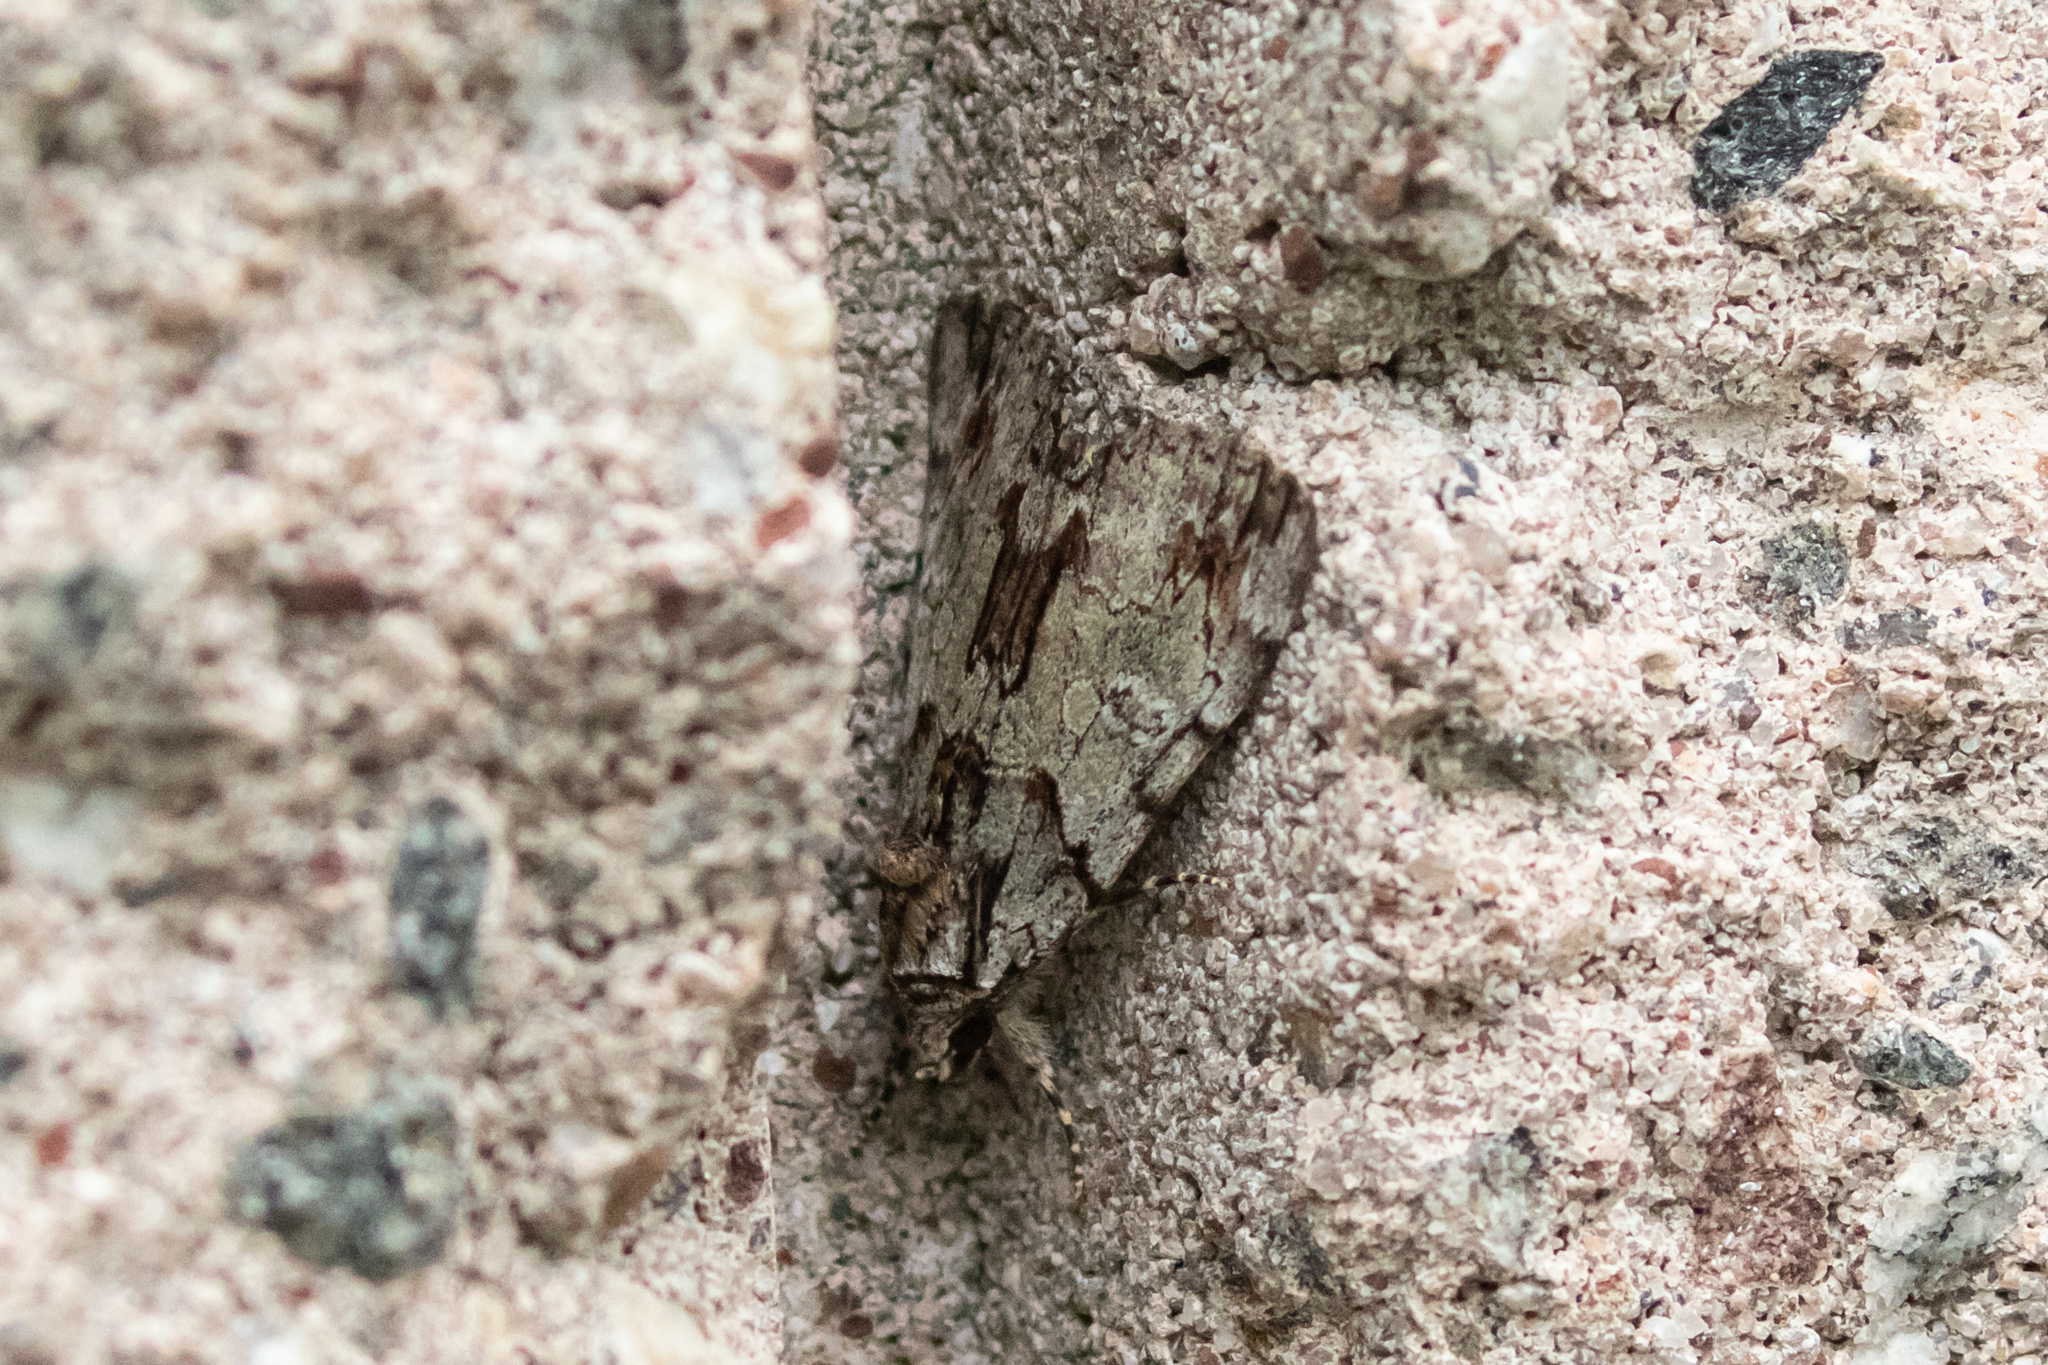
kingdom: Animalia
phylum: Arthropoda
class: Insecta
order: Lepidoptera
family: Erebidae
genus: Catocala
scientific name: Catocala praeclara
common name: Praeclara underwing
